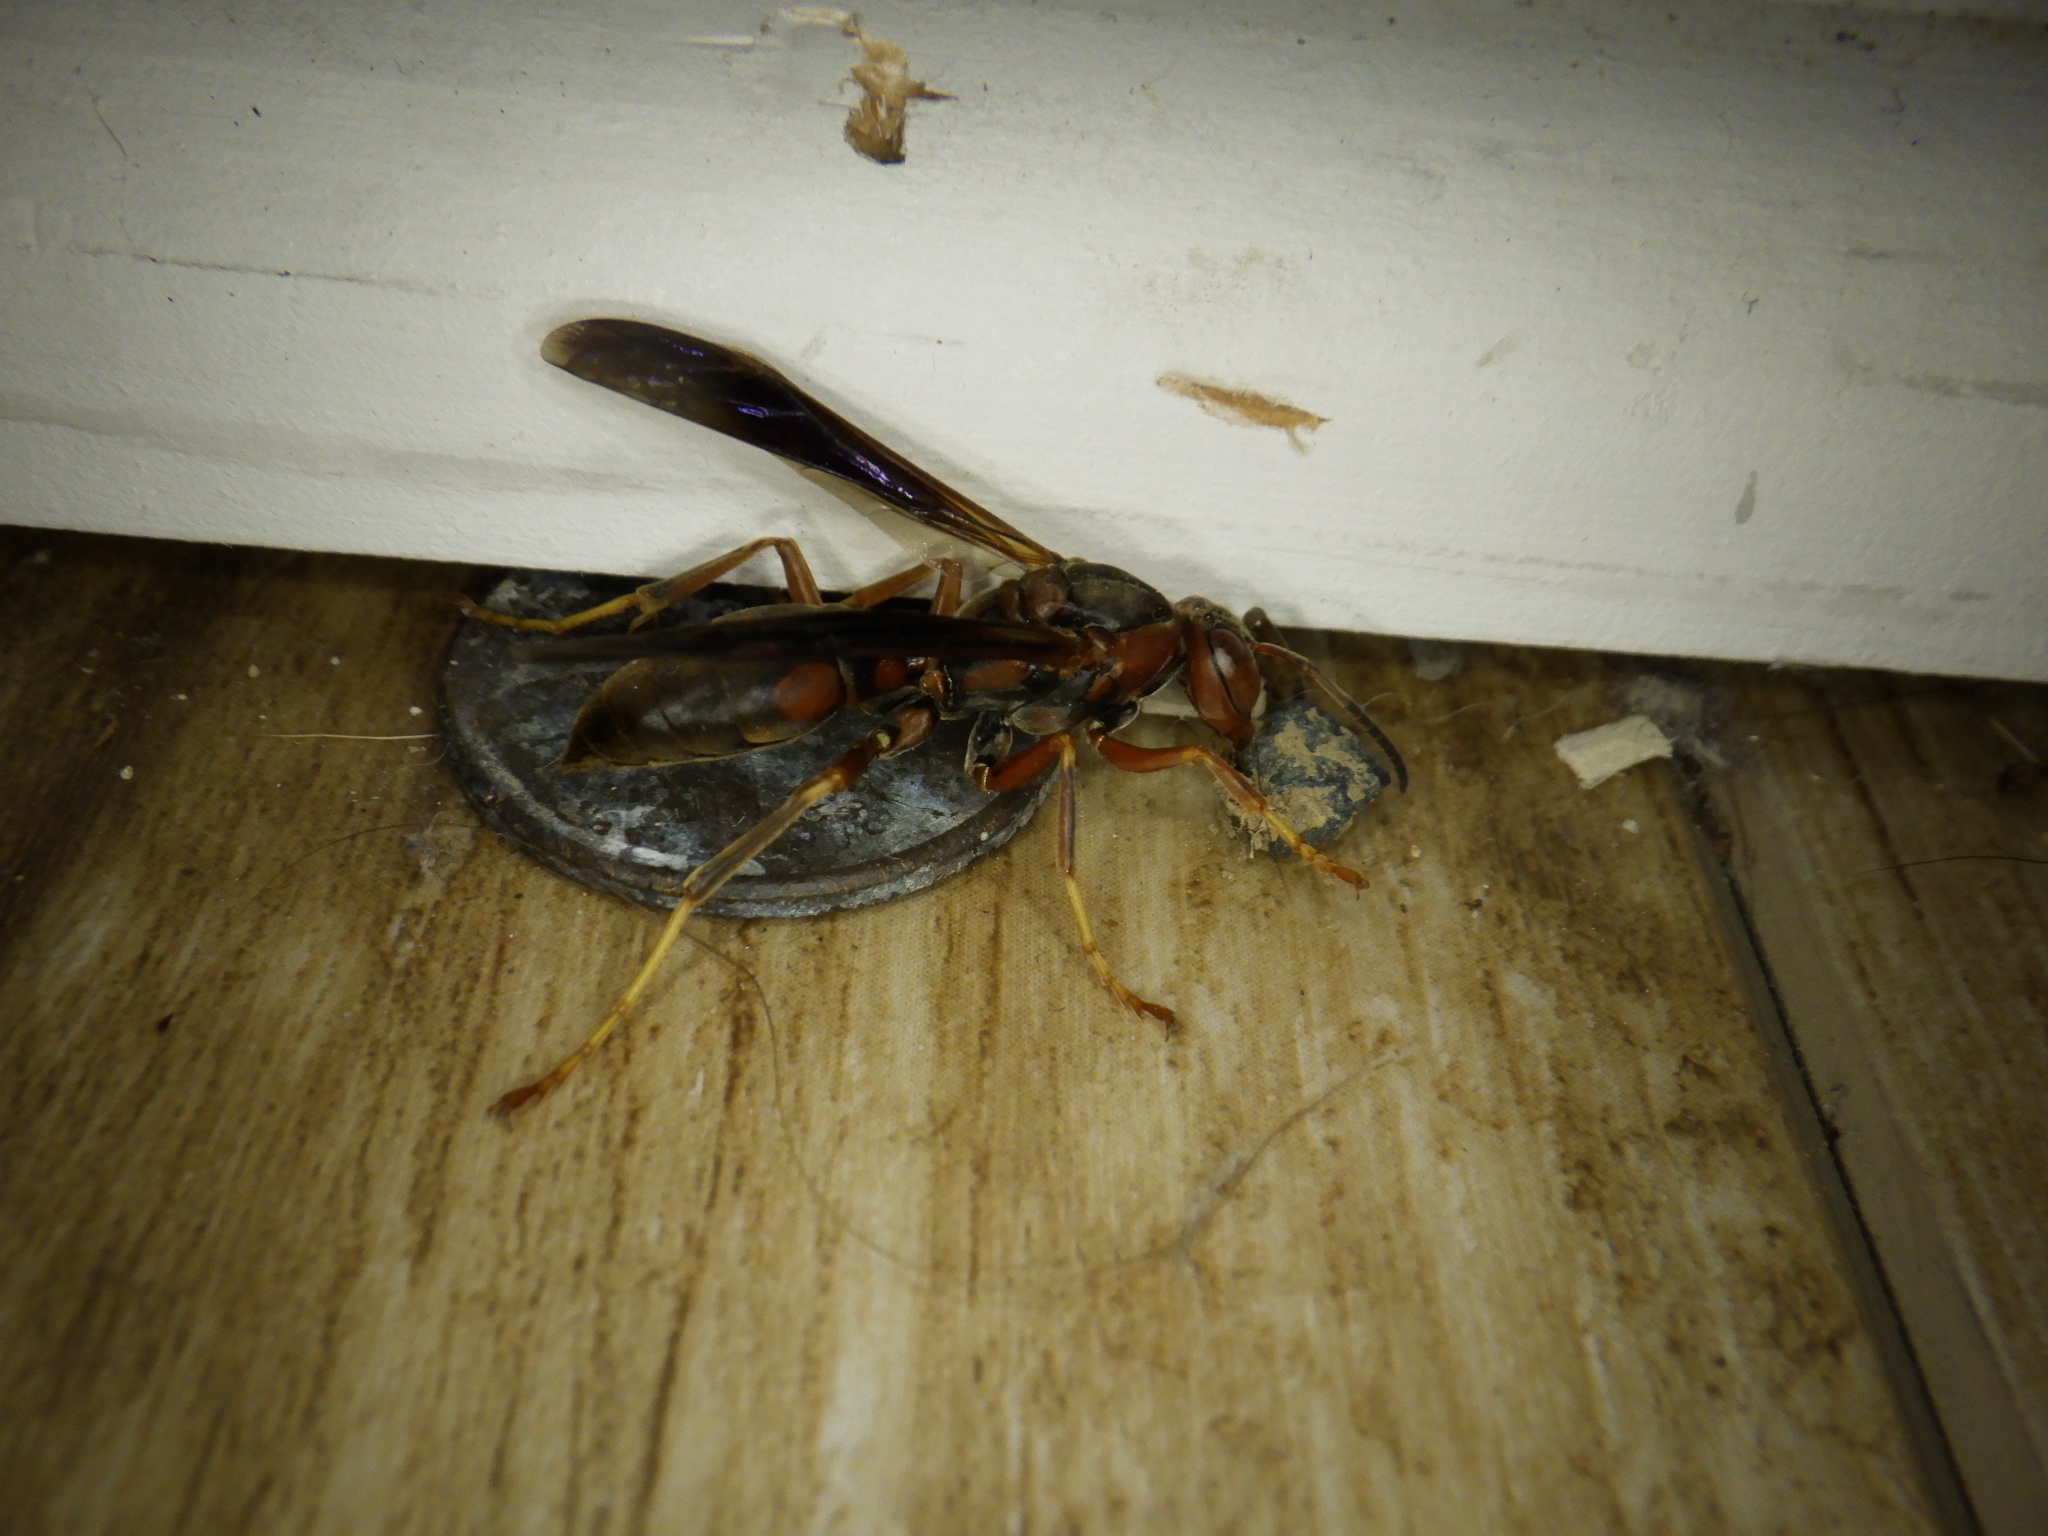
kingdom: Animalia
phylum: Arthropoda
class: Insecta
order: Hymenoptera
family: Vespidae
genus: Fuscopolistes
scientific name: Fuscopolistes
